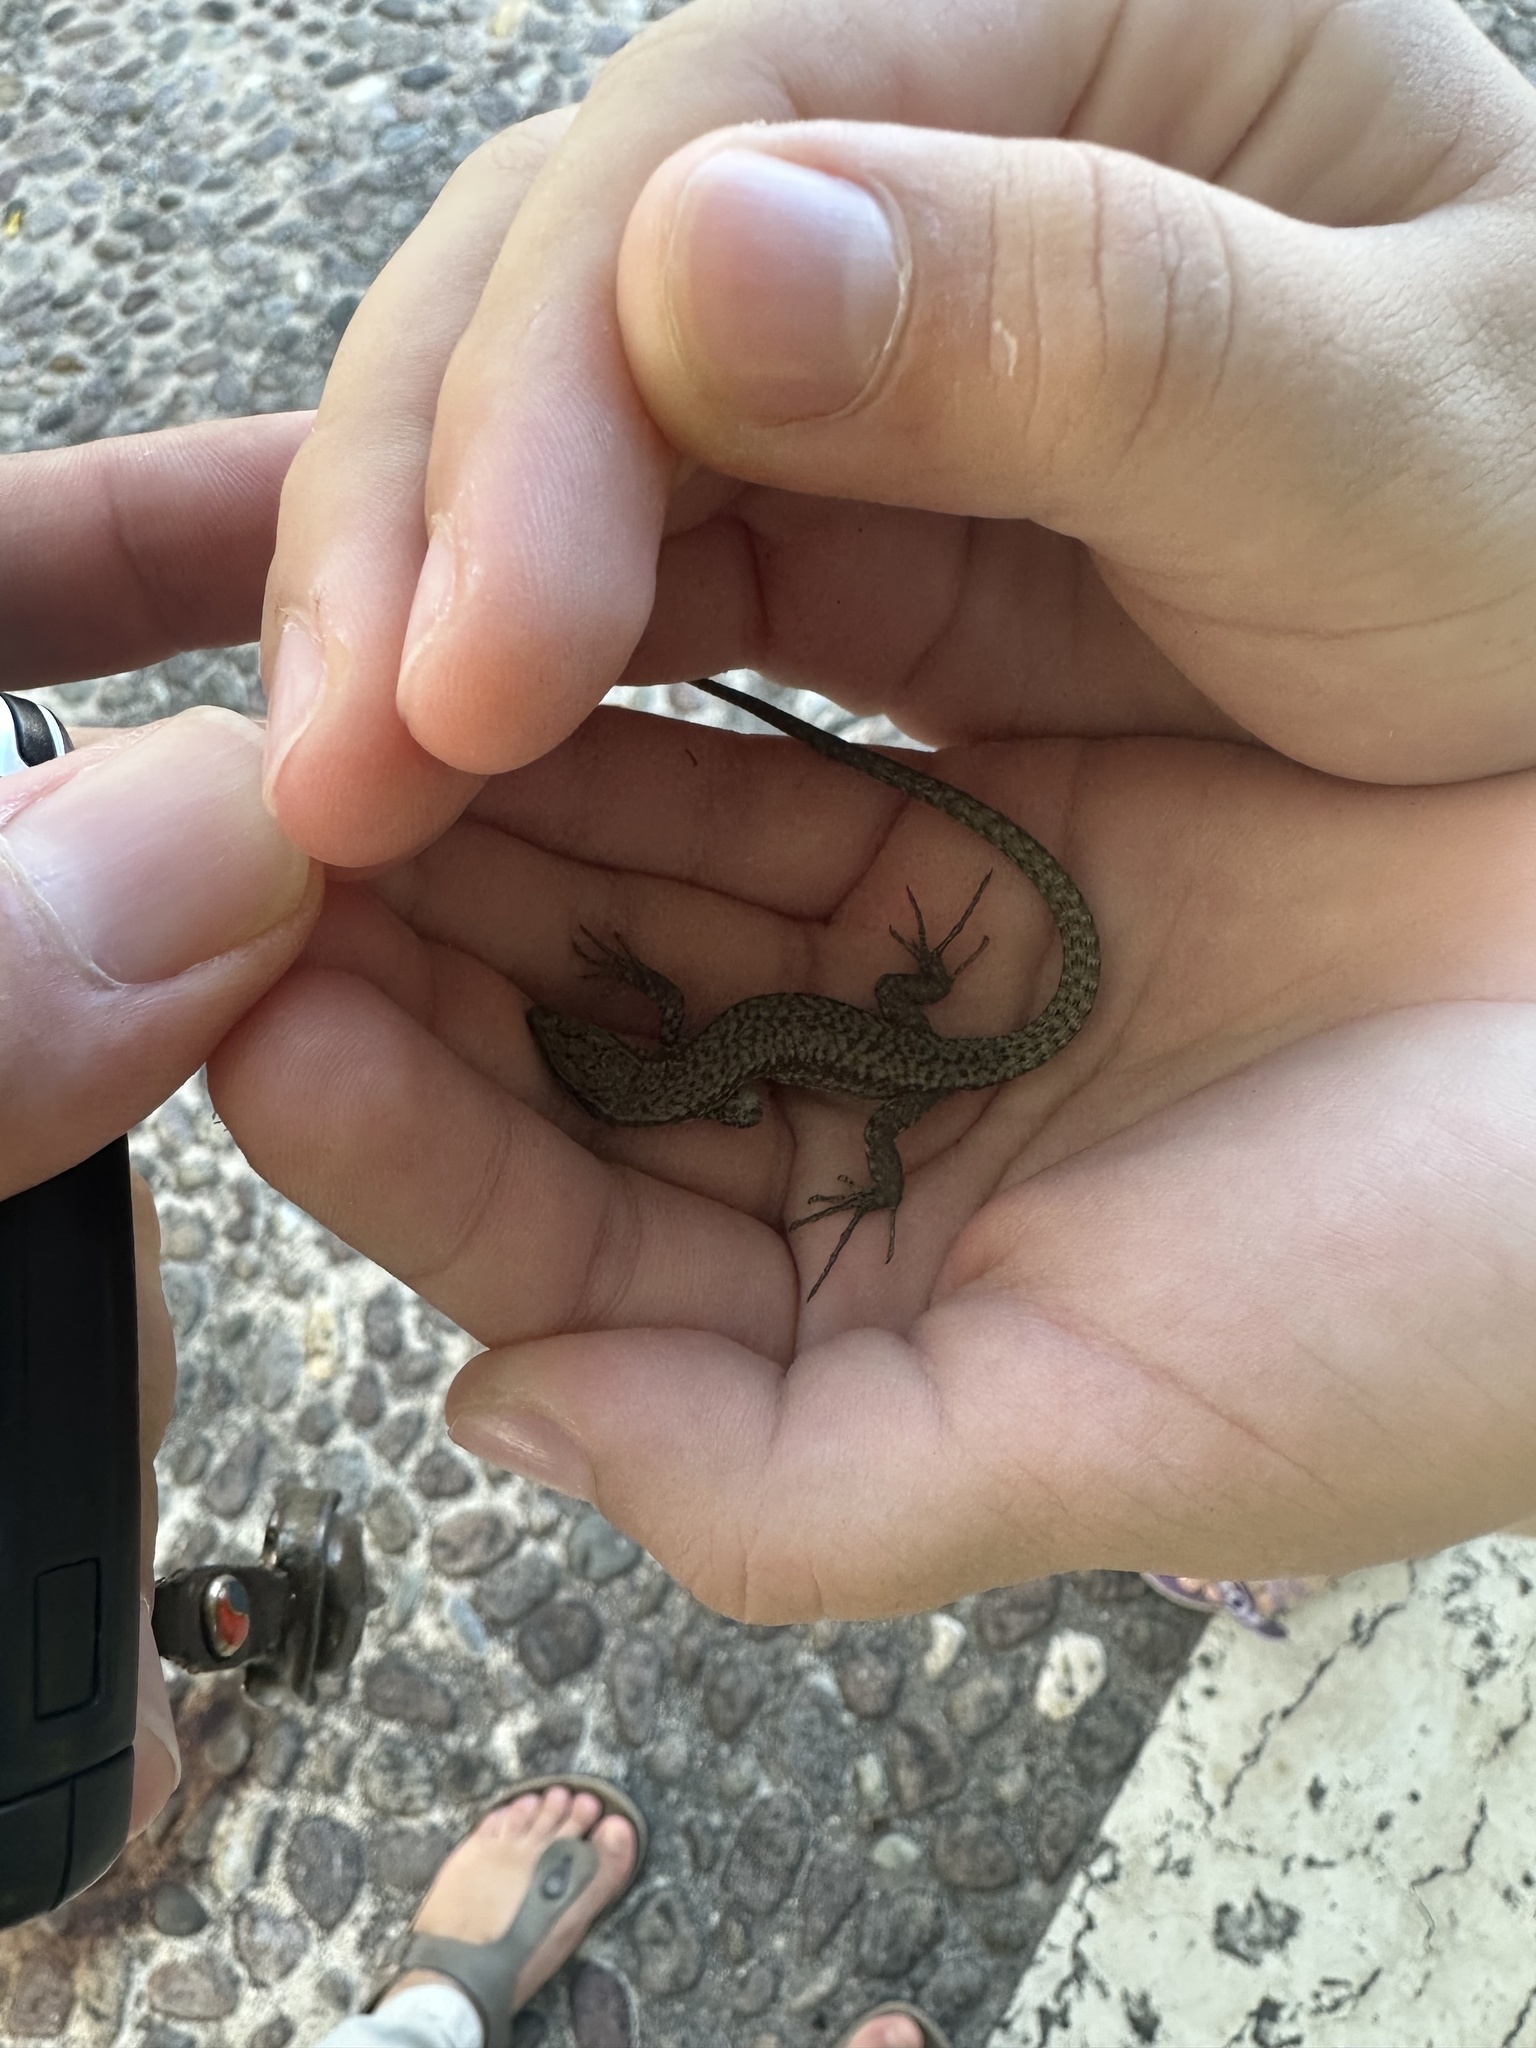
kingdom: Animalia
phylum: Chordata
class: Squamata
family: Lacertidae
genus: Podarcis
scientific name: Podarcis muralis
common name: Common wall lizard
